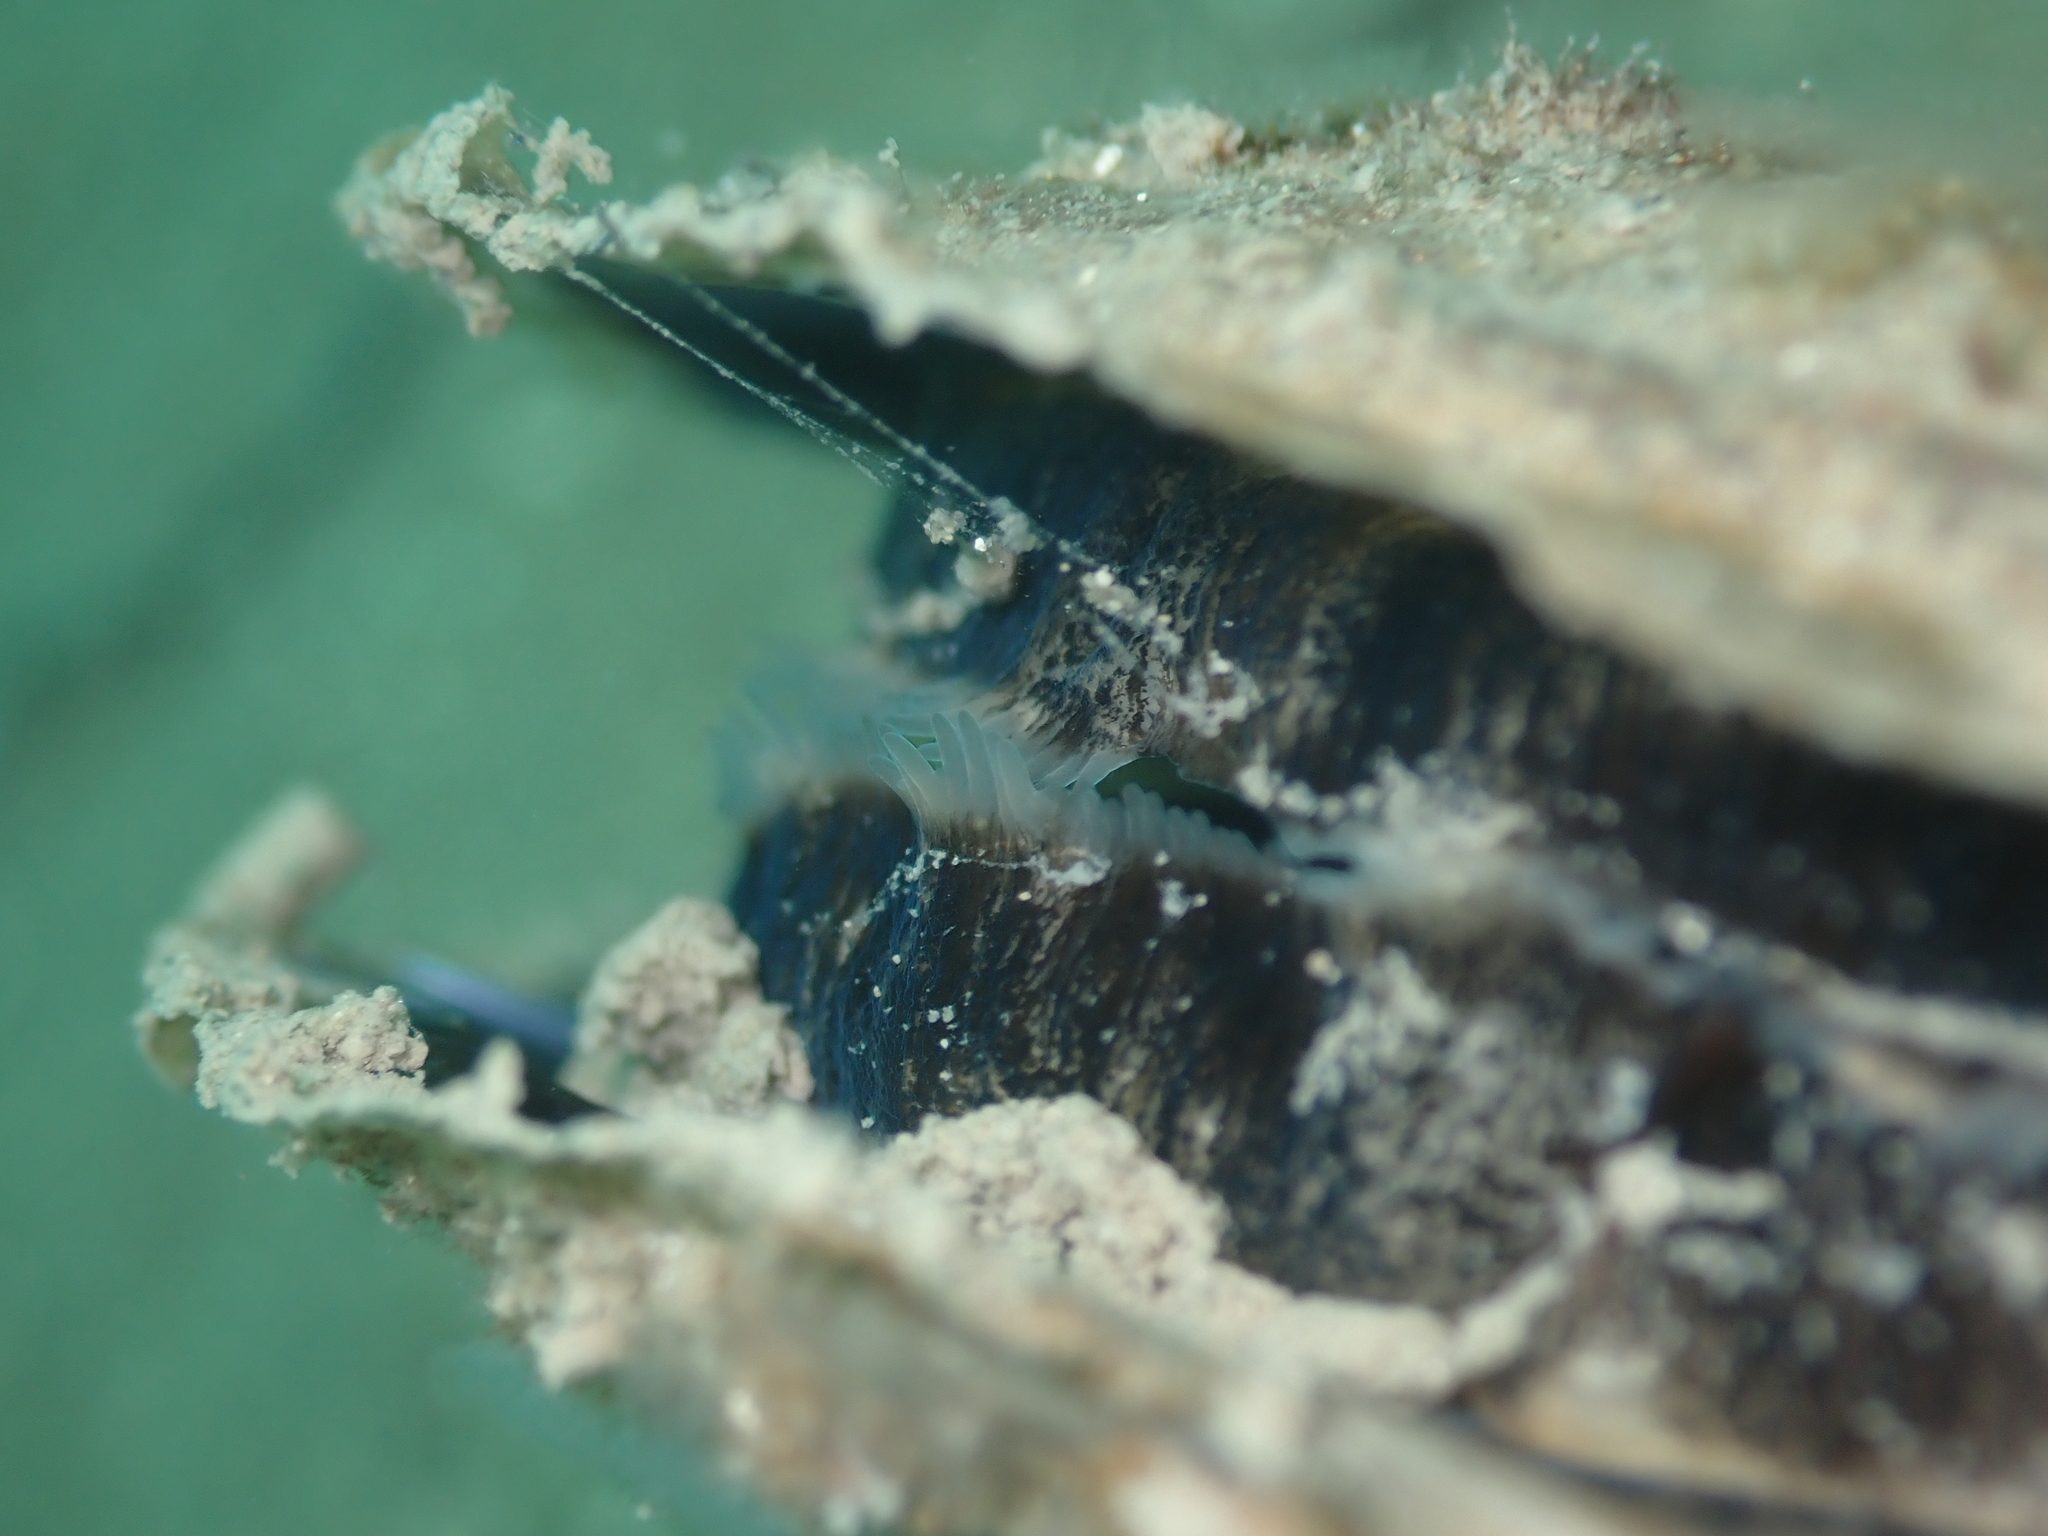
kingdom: Animalia
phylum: Mollusca
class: Bivalvia
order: Ostreida
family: Pinnidae
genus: Atrina
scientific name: Atrina zelandica
